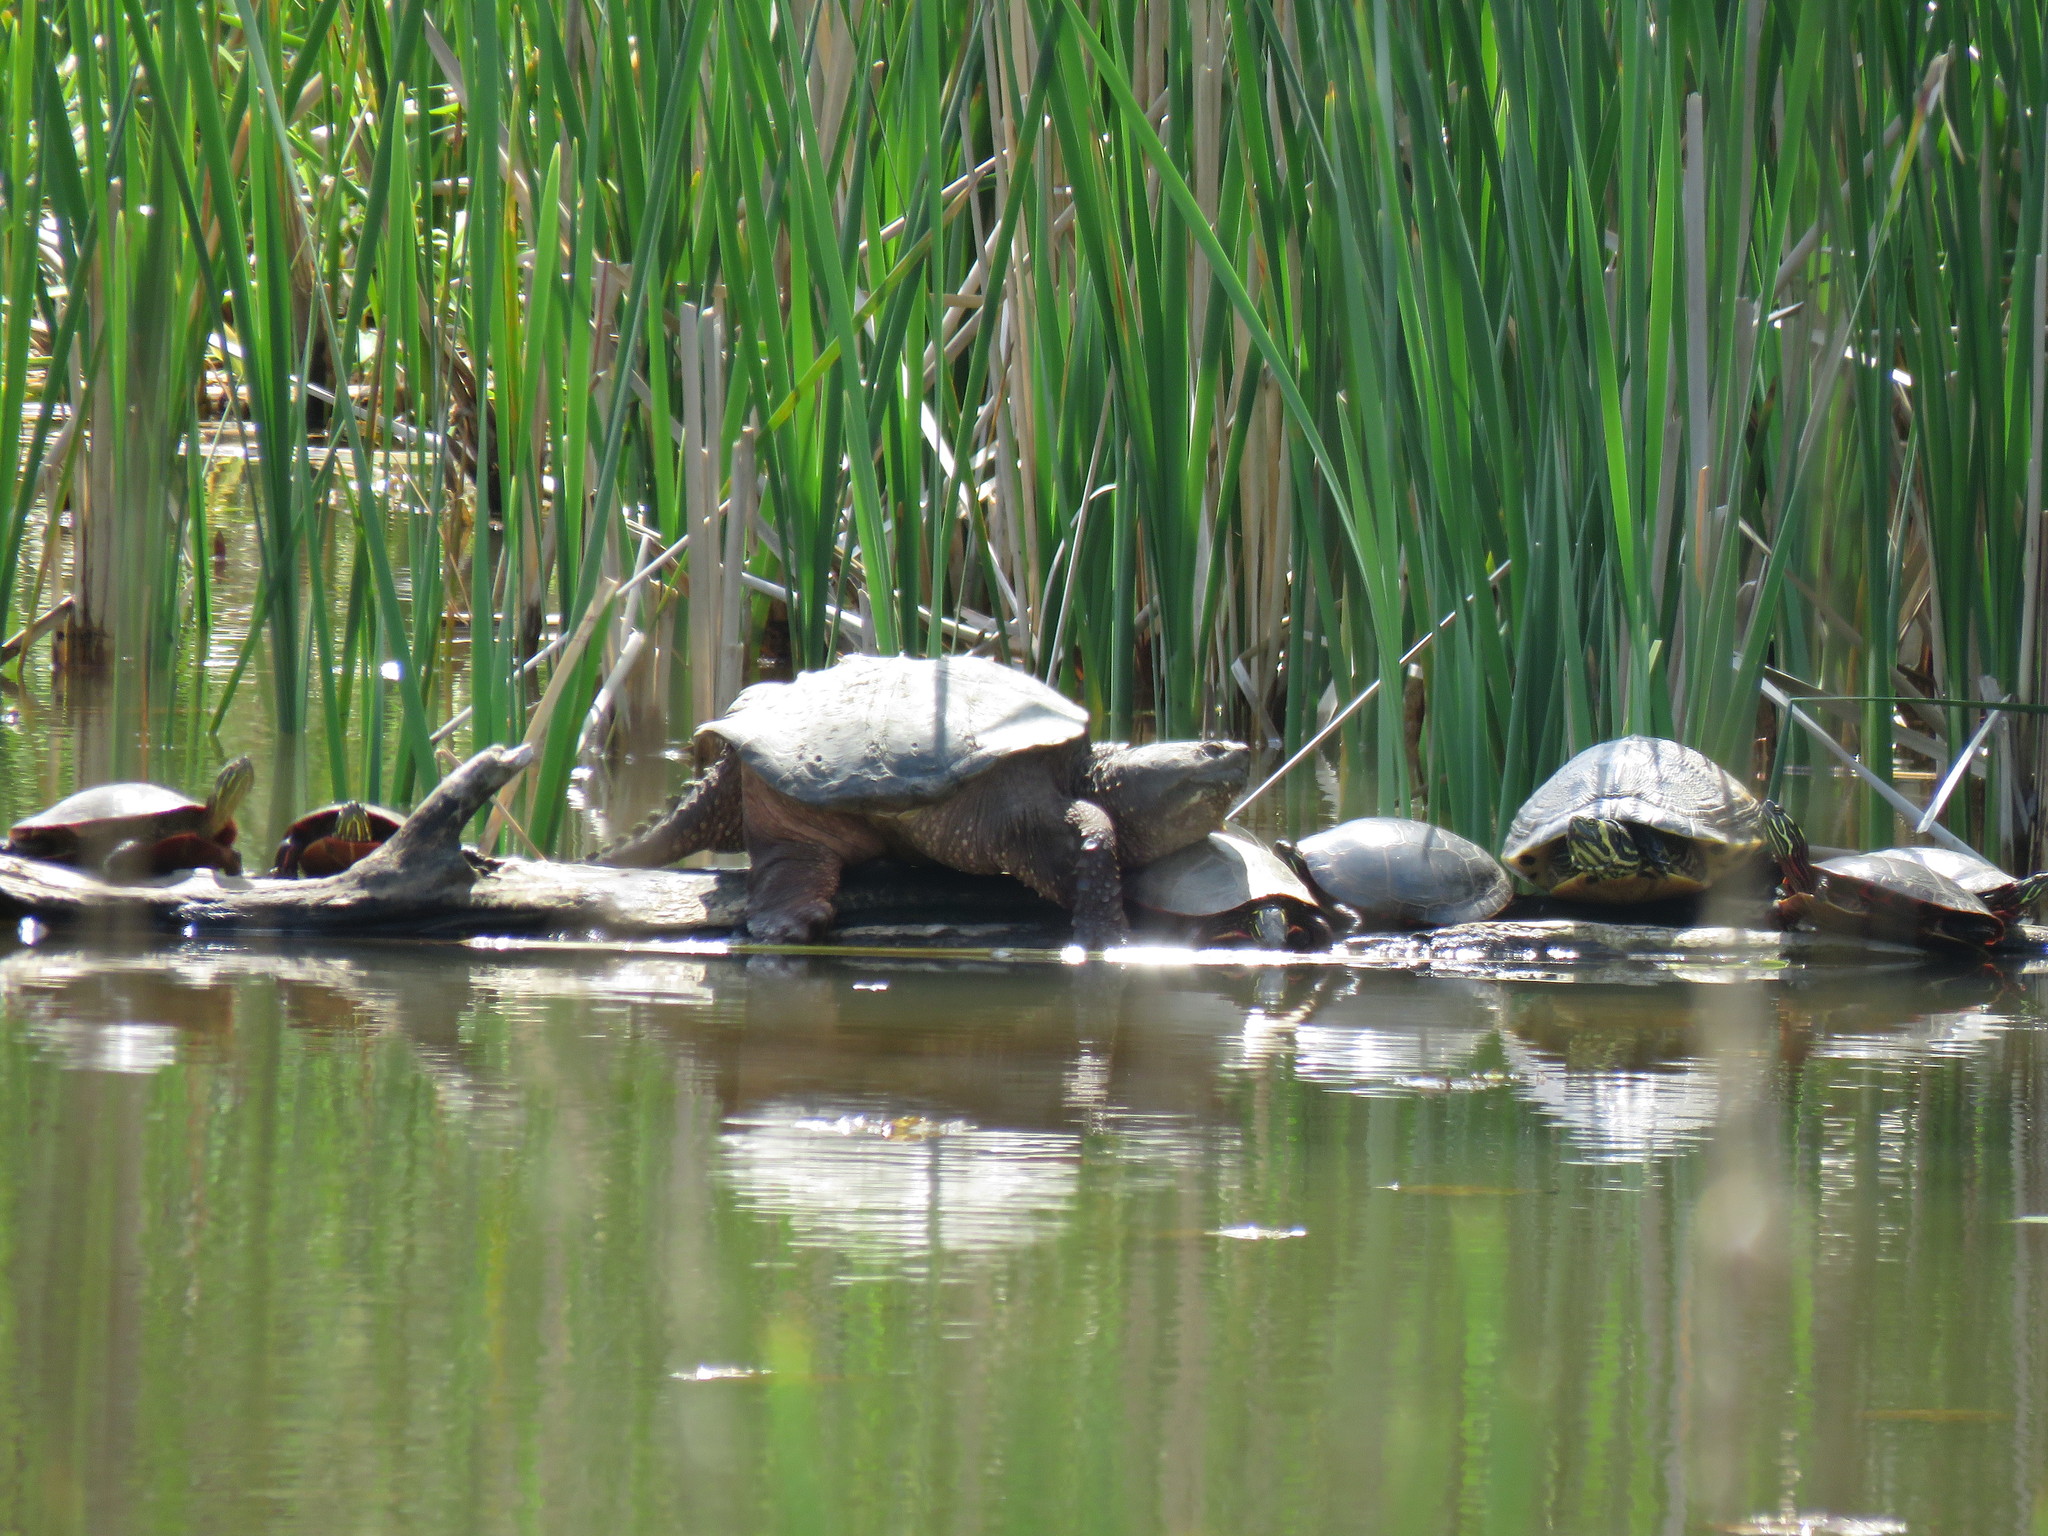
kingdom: Animalia
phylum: Chordata
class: Testudines
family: Chelydridae
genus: Chelydra
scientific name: Chelydra serpentina
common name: Common snapping turtle
